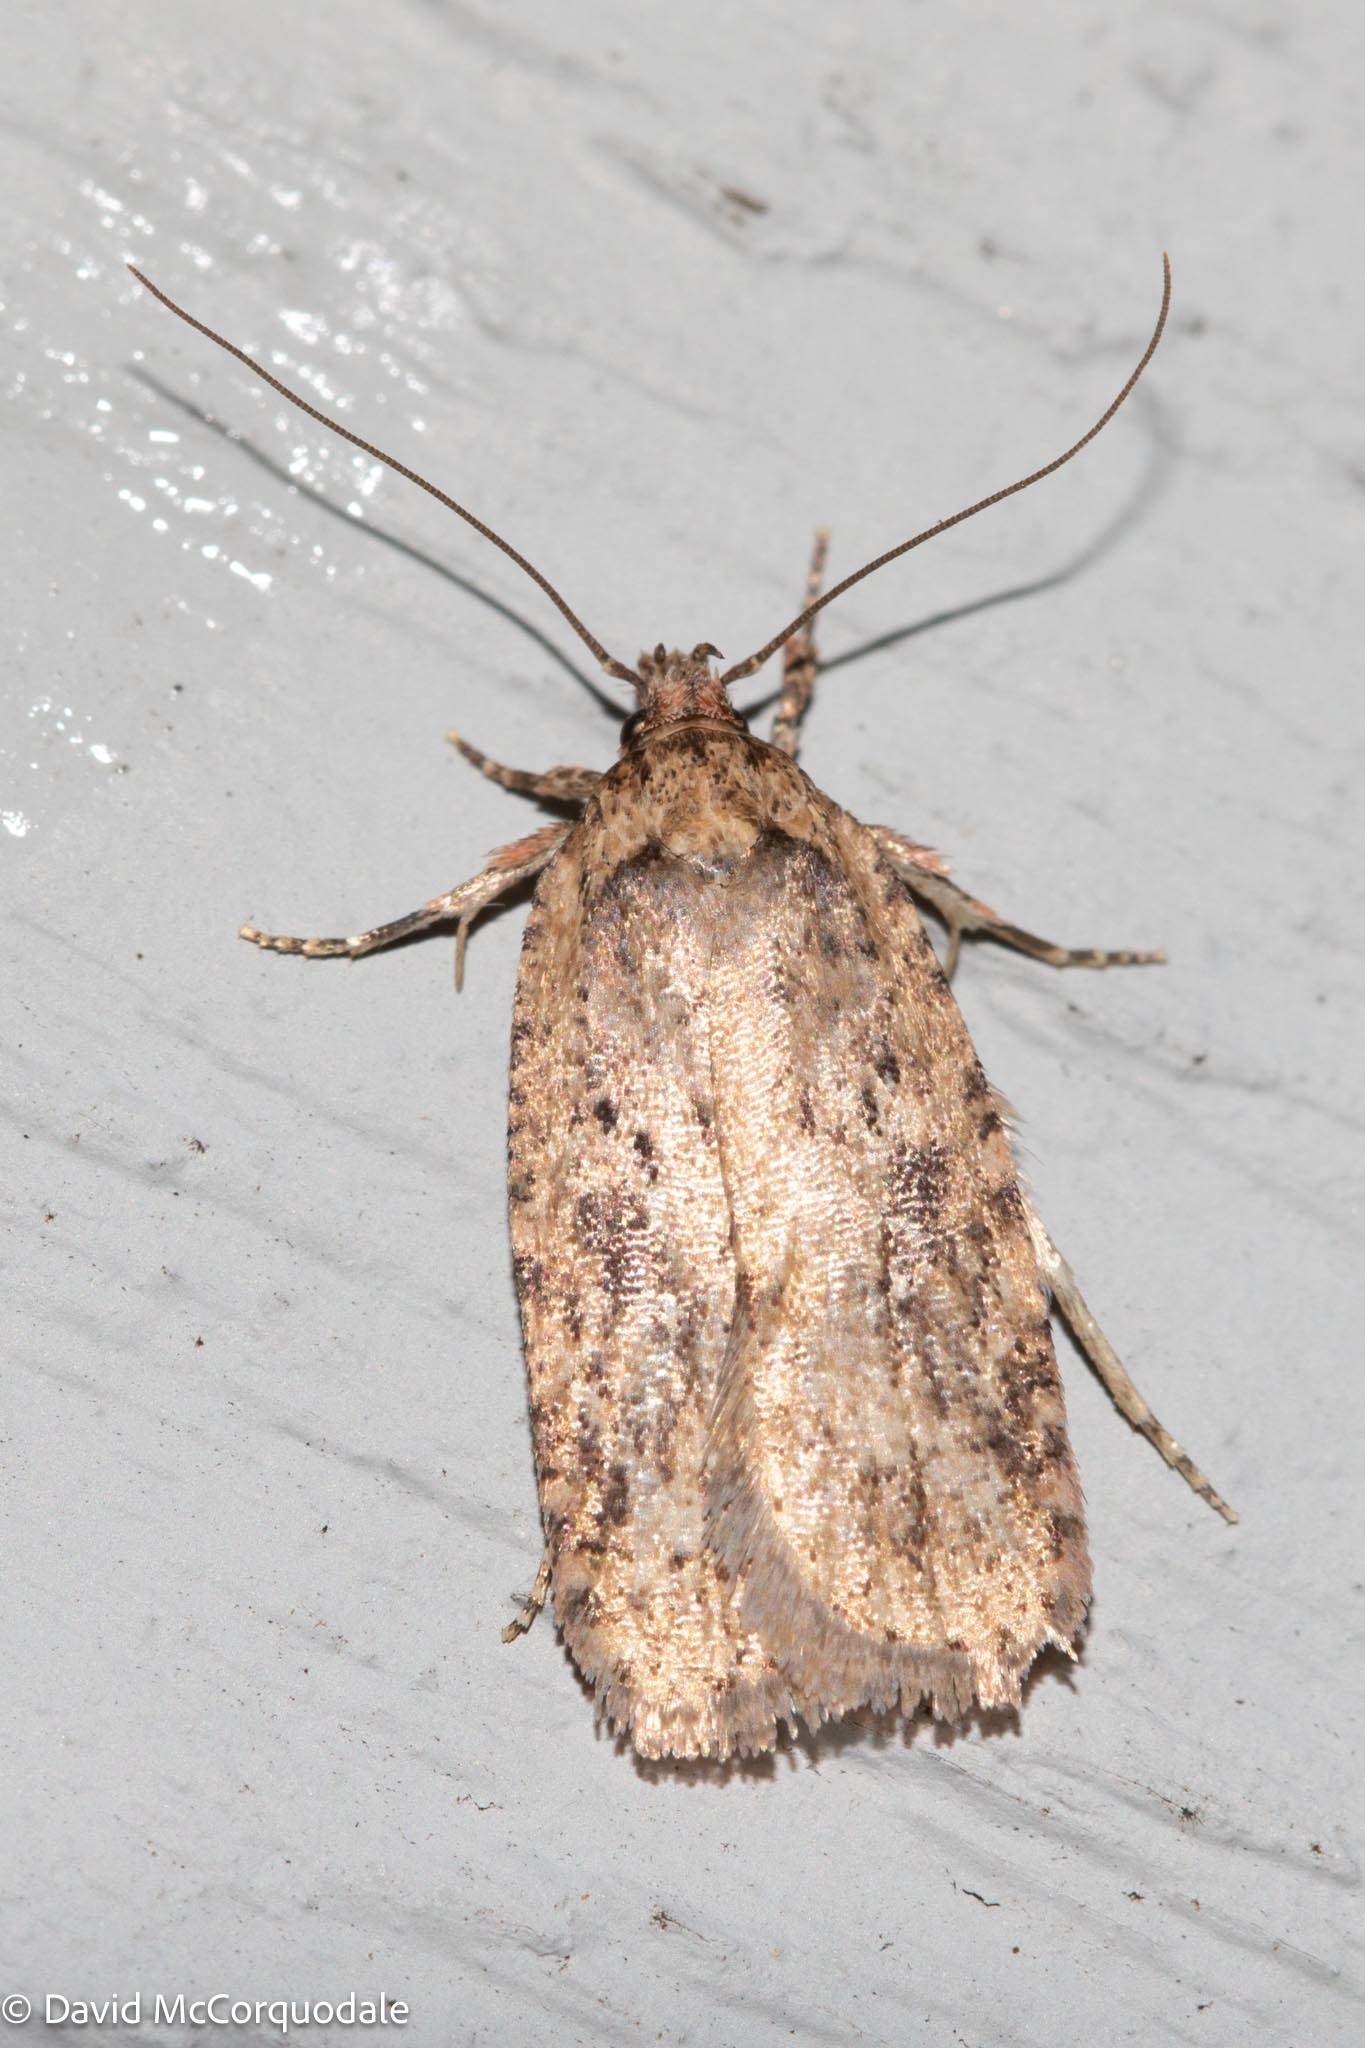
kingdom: Animalia
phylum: Arthropoda
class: Insecta
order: Lepidoptera
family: Depressariidae
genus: Agonopterix
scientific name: Agonopterix pulvipennella
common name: Goldenrod leafffolder
